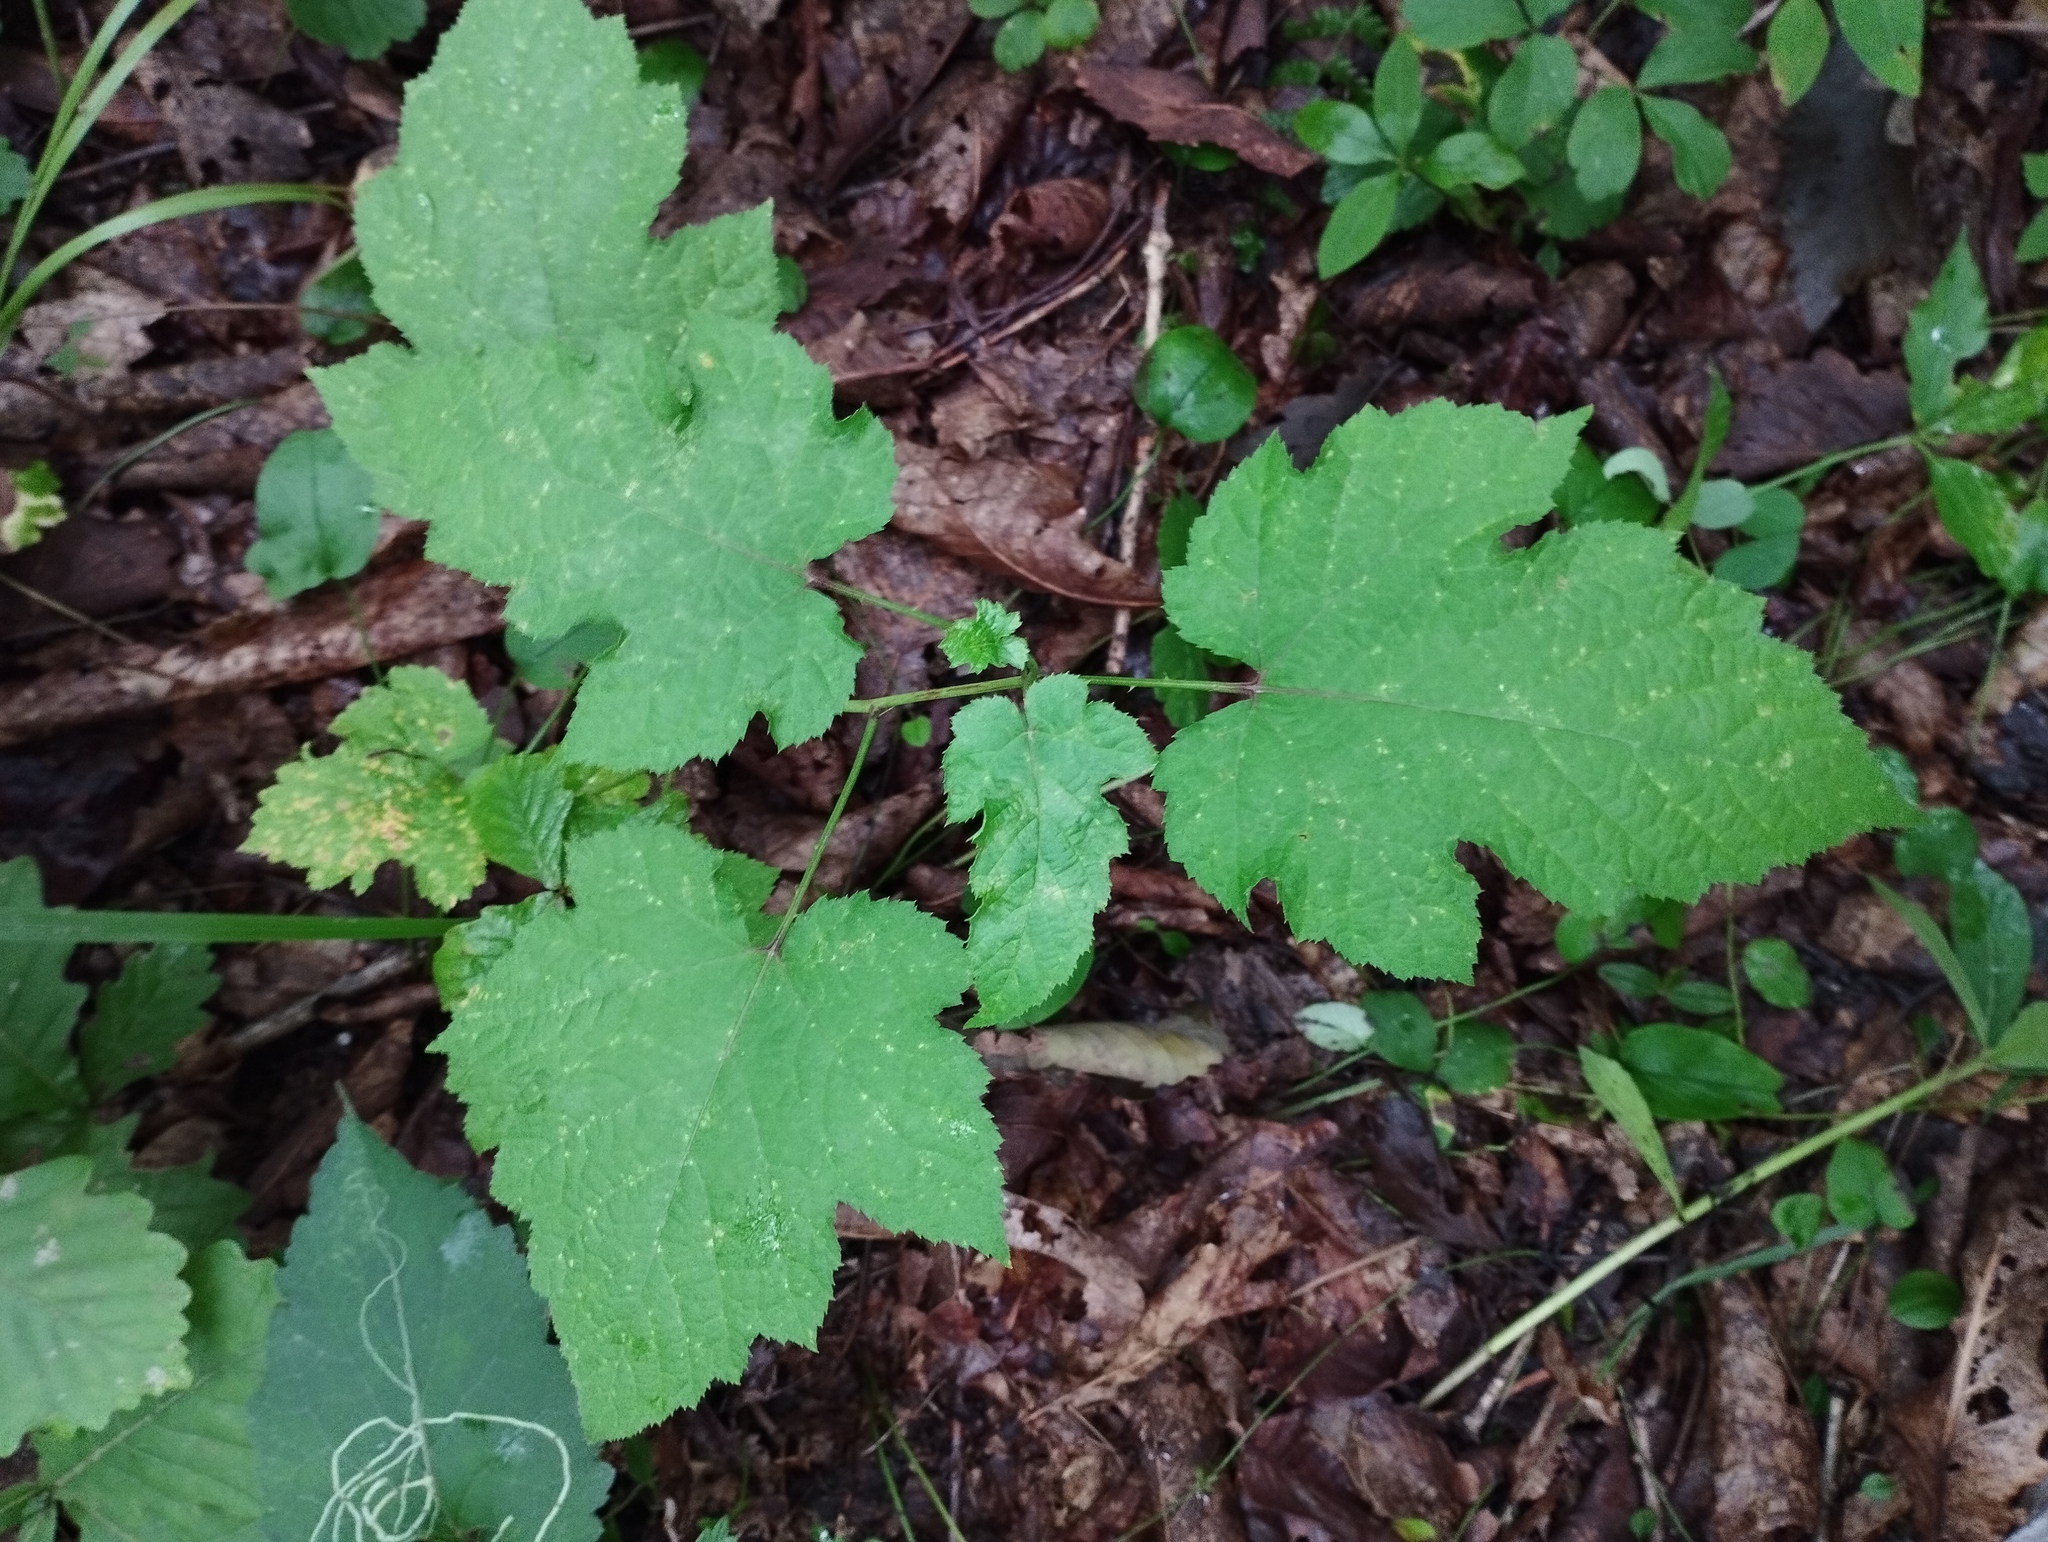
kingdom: Plantae
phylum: Tracheophyta
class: Magnoliopsida
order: Rosales
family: Rosaceae
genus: Rubus
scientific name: Rubus crataegifolius
